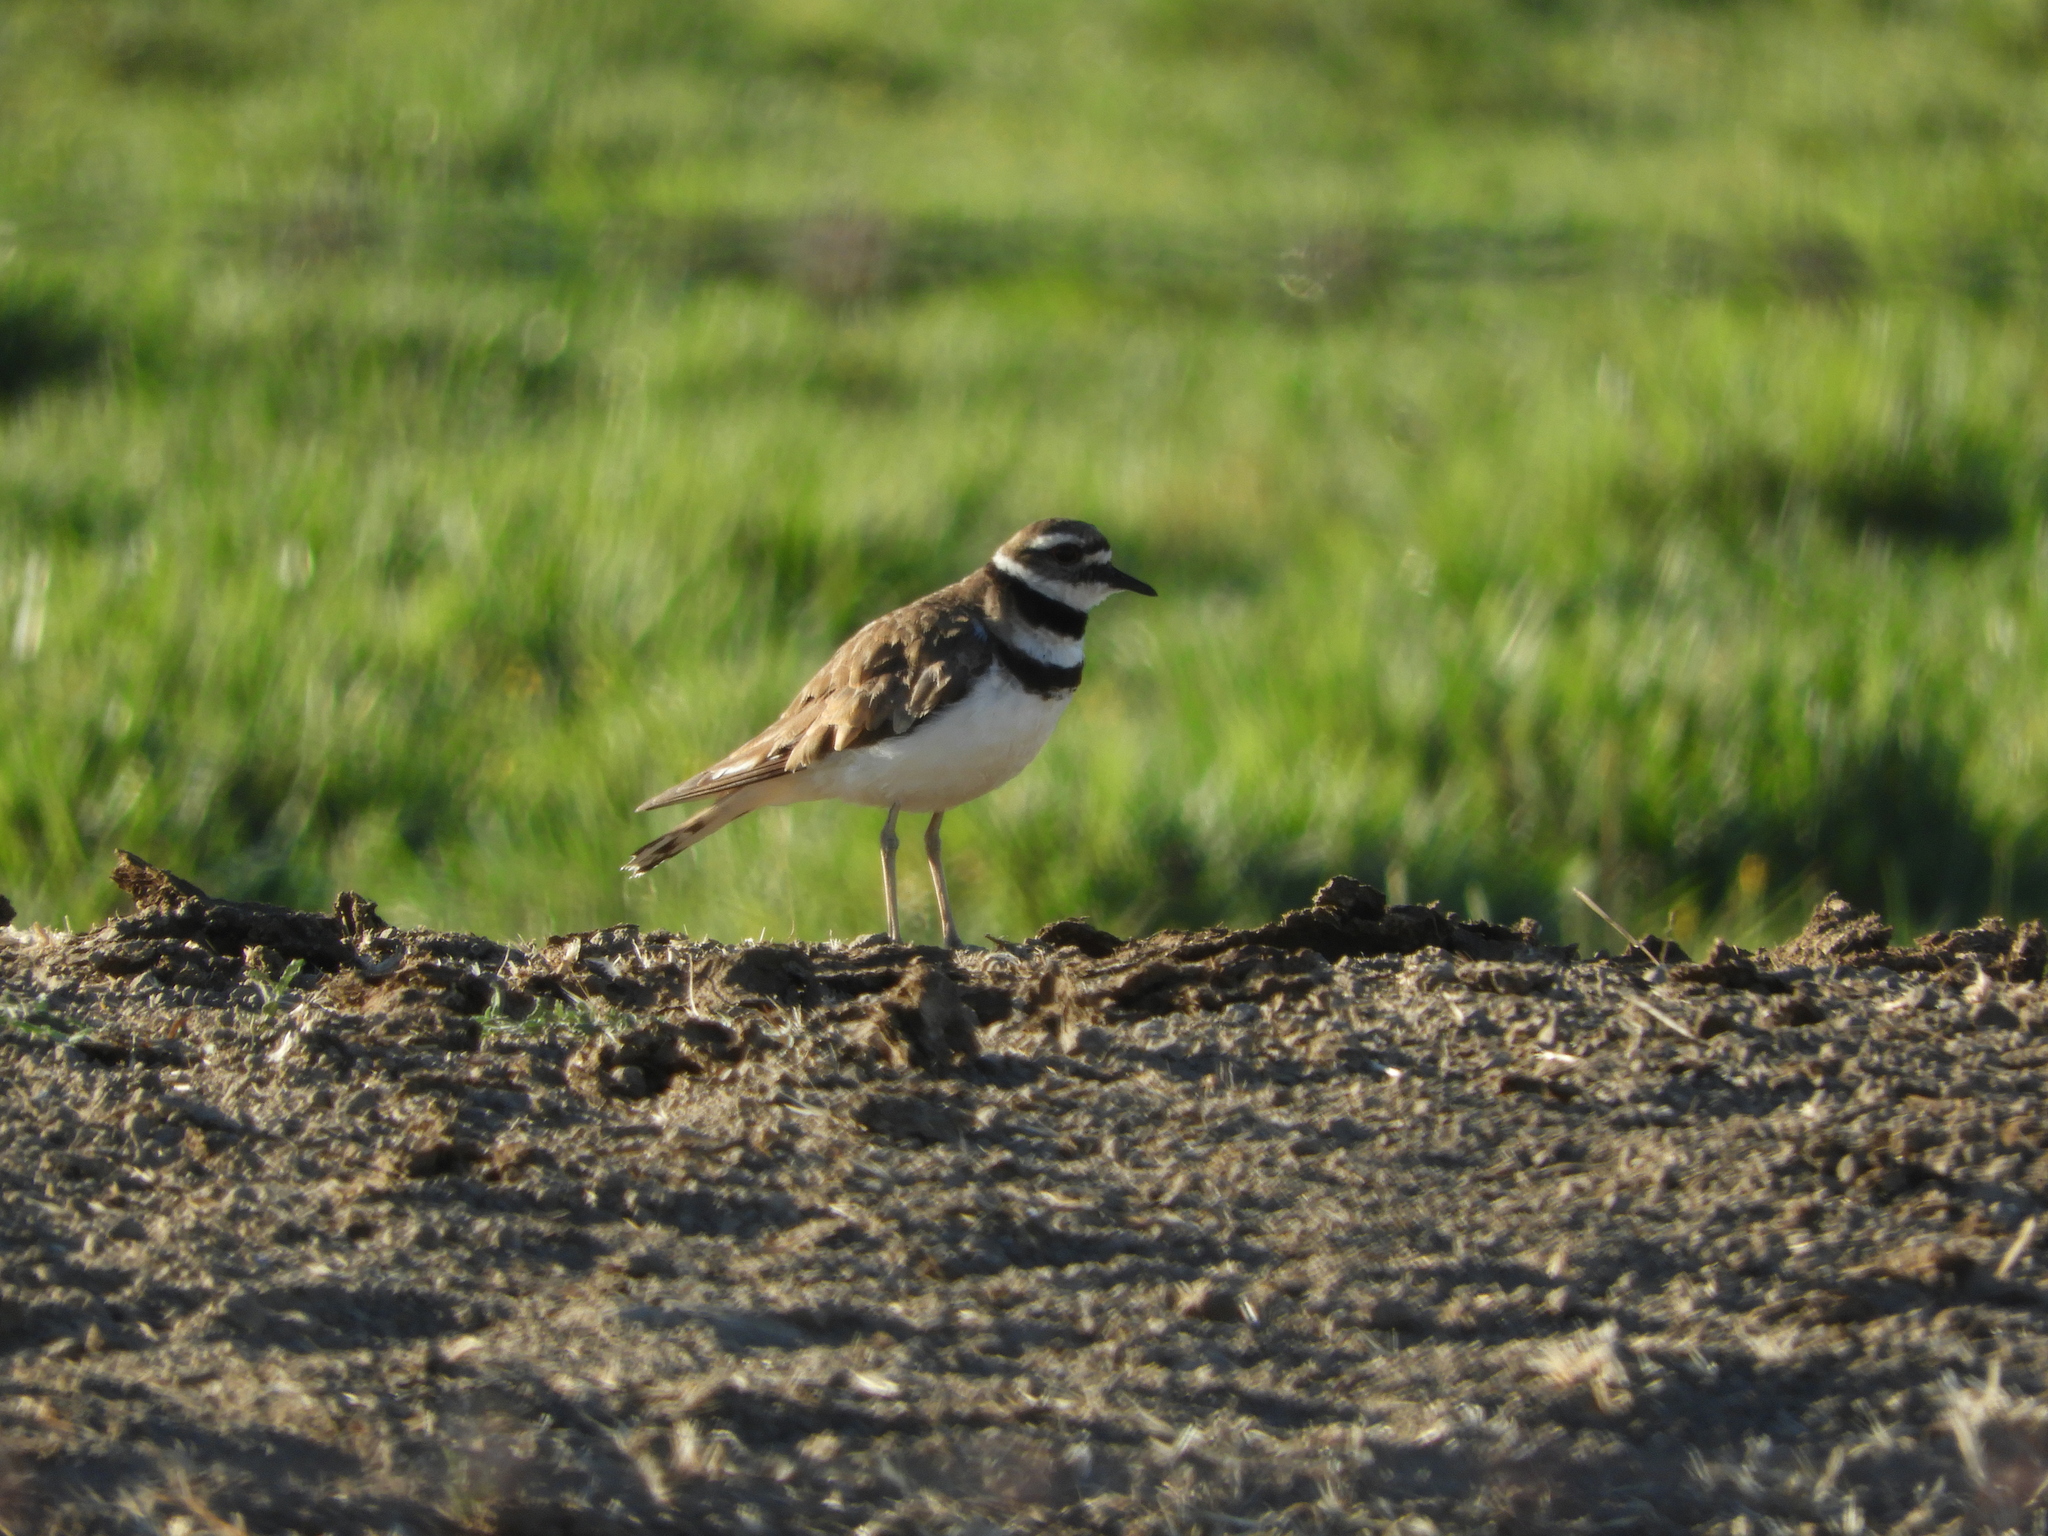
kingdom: Animalia
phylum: Chordata
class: Aves
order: Charadriiformes
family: Charadriidae
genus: Charadrius
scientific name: Charadrius vociferus
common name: Killdeer
